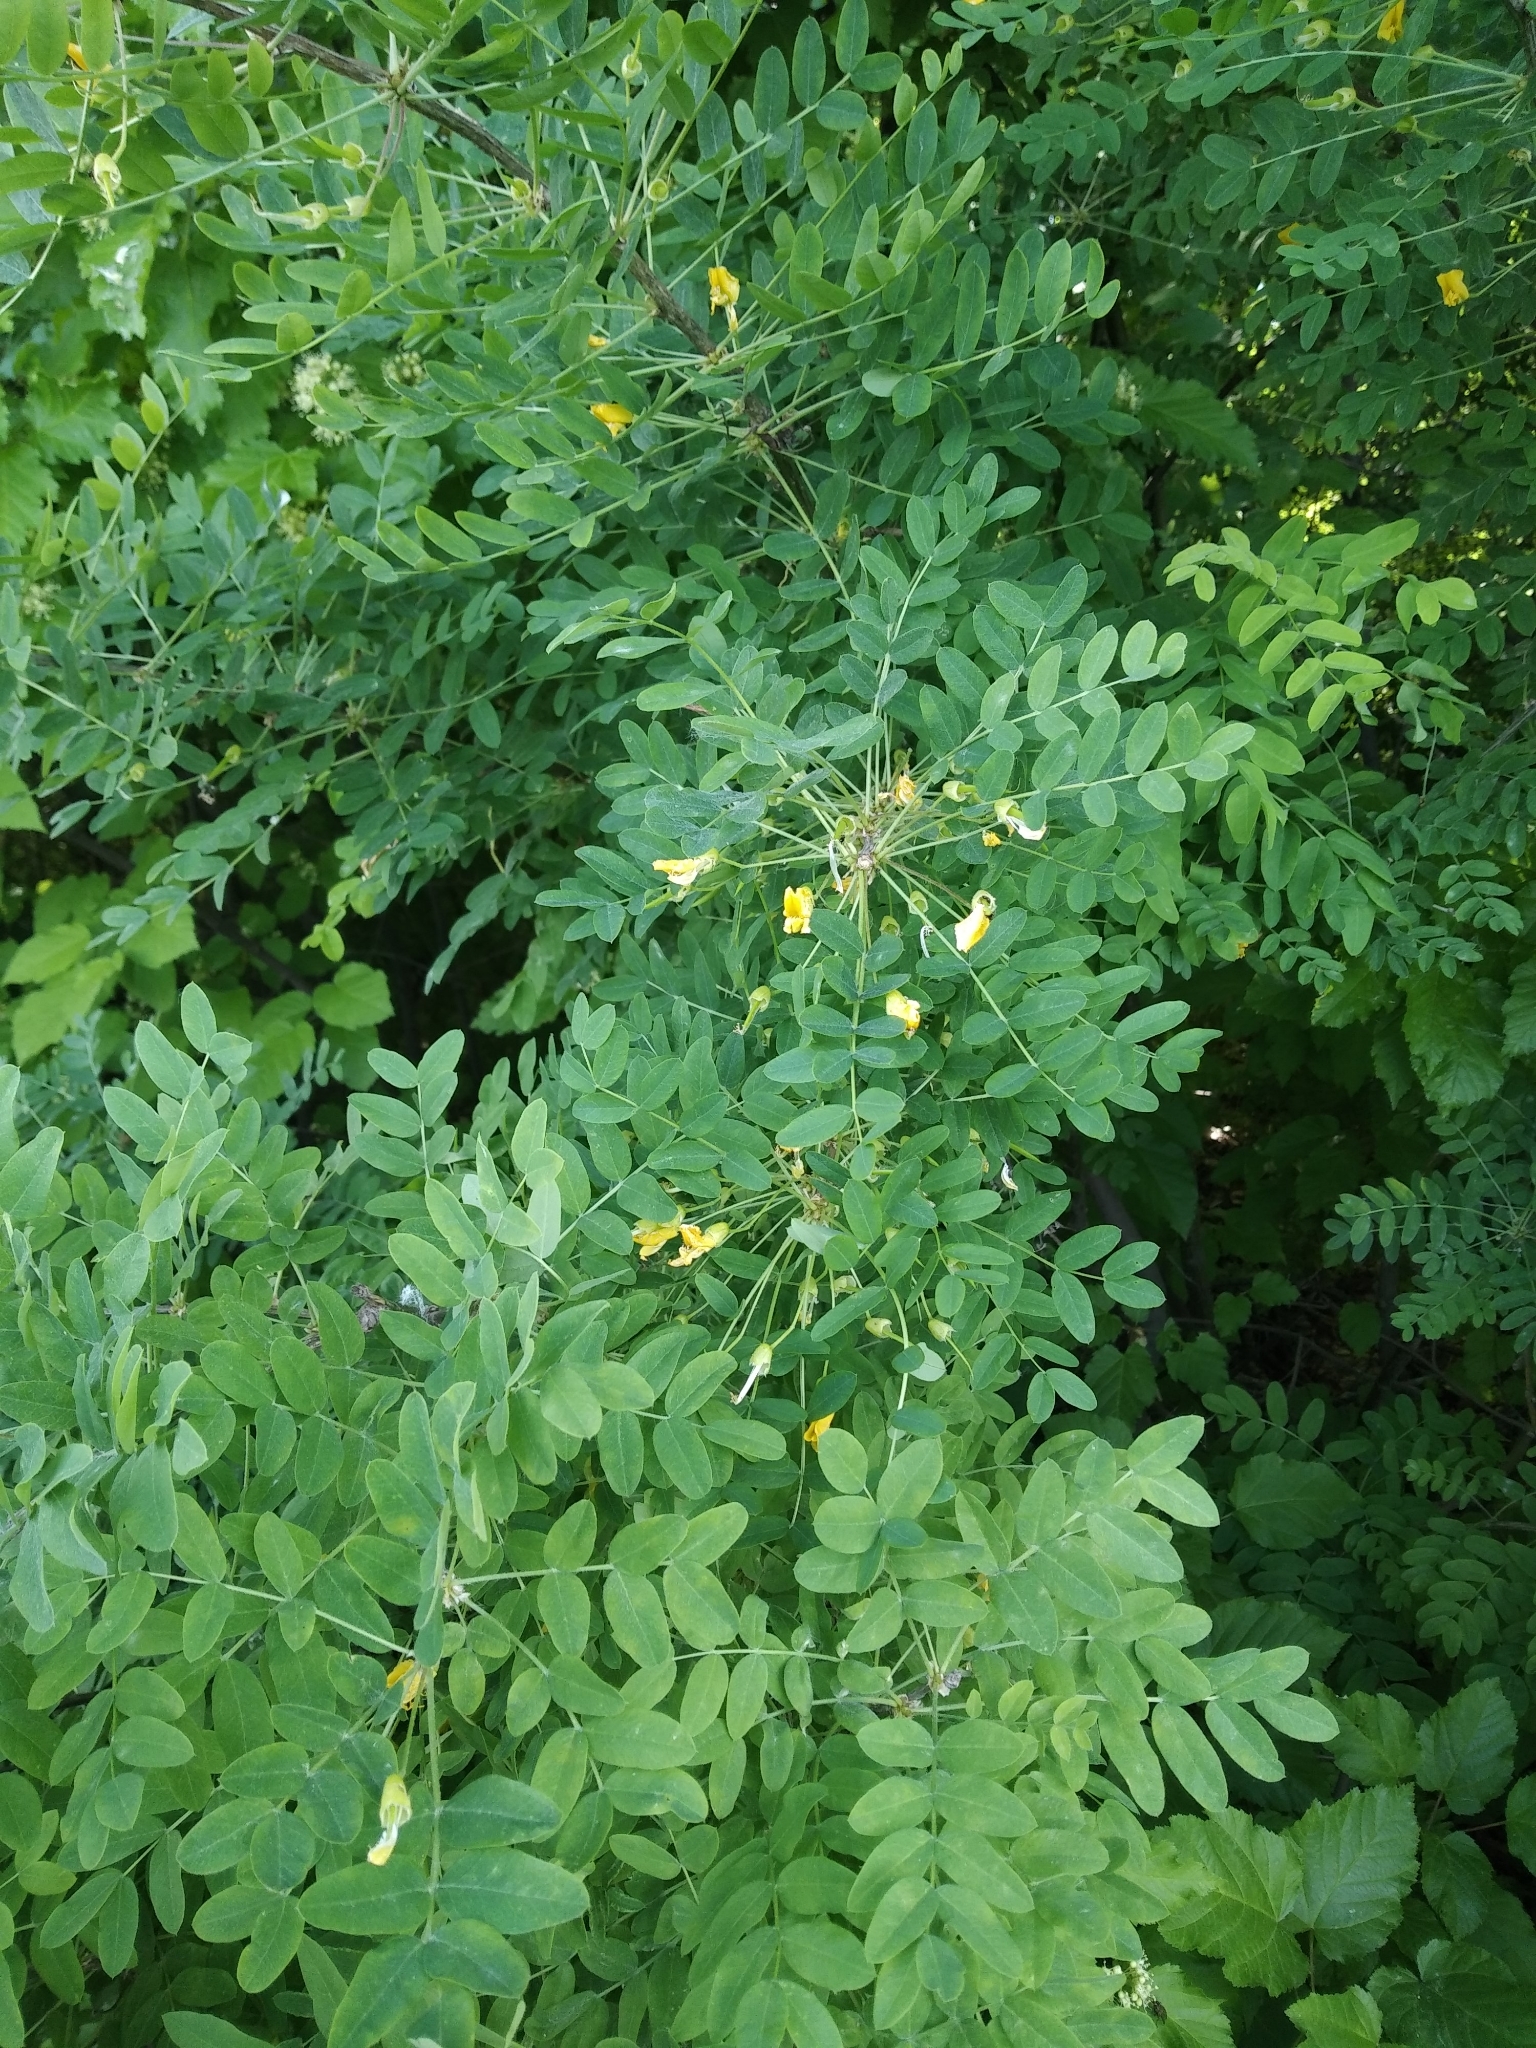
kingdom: Plantae
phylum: Tracheophyta
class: Magnoliopsida
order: Fabales
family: Fabaceae
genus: Caragana
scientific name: Caragana arborescens
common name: Siberian peashrub
